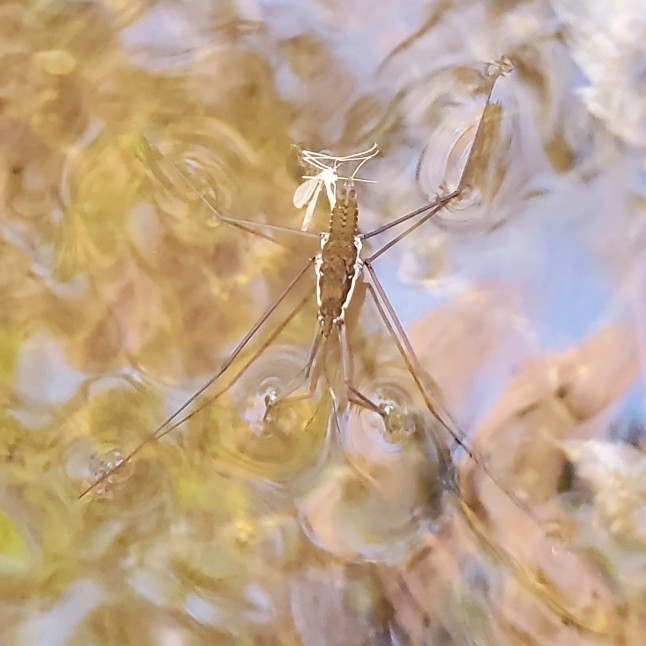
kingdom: Animalia
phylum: Arthropoda
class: Insecta
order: Hemiptera
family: Gerridae
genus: Aquarius
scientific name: Aquarius
